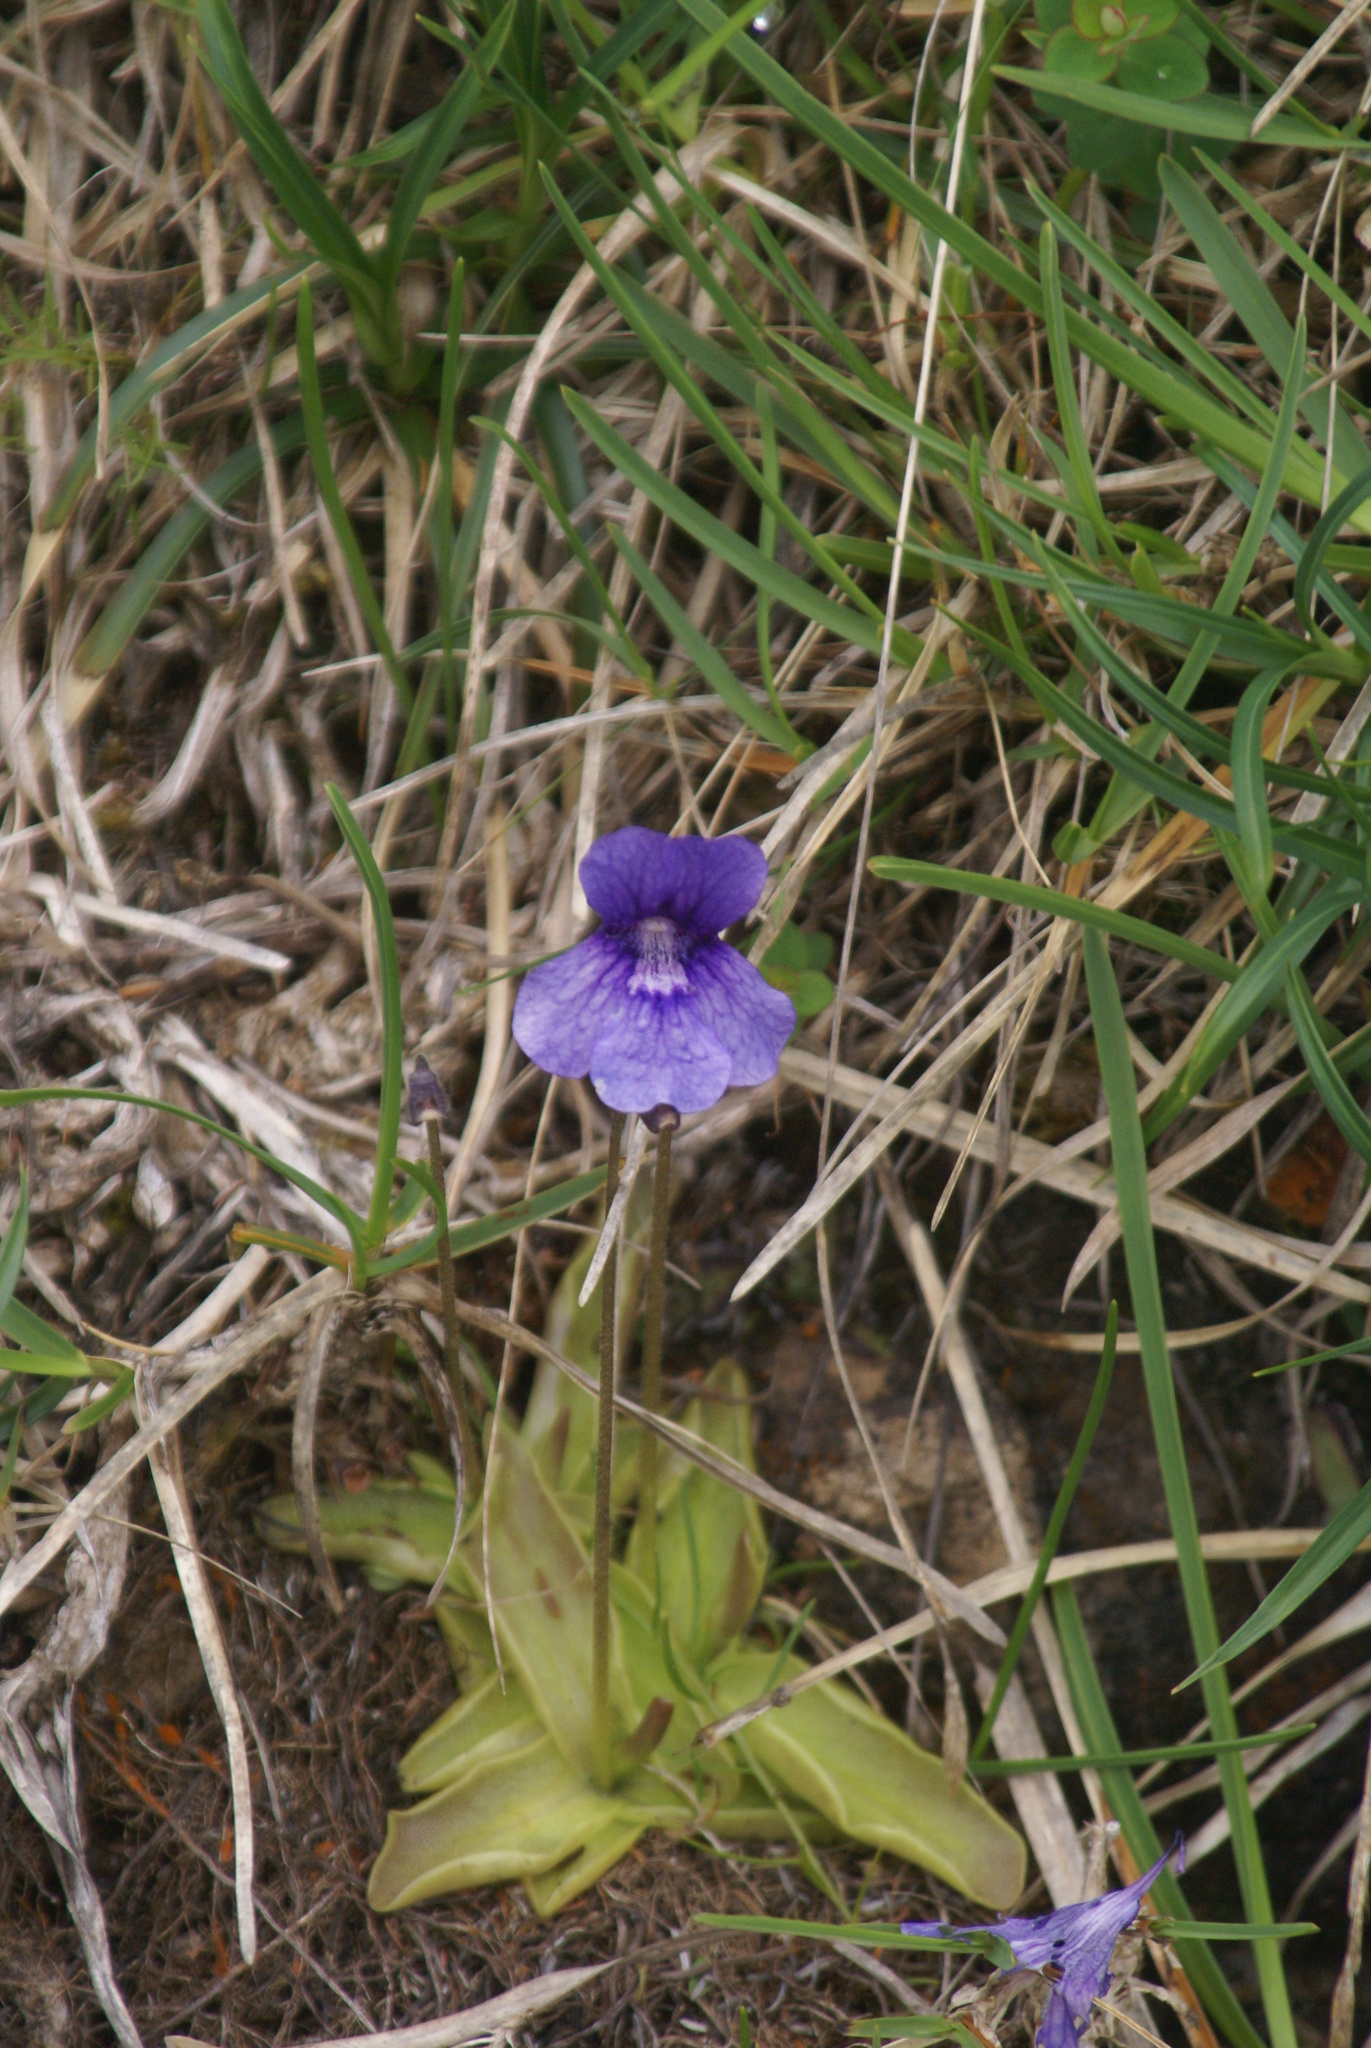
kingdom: Plantae
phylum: Tracheophyta
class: Magnoliopsida
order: Lamiales
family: Lentibulariaceae
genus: Pinguicula
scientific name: Pinguicula grandiflora
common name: Large-flowered butterwort
